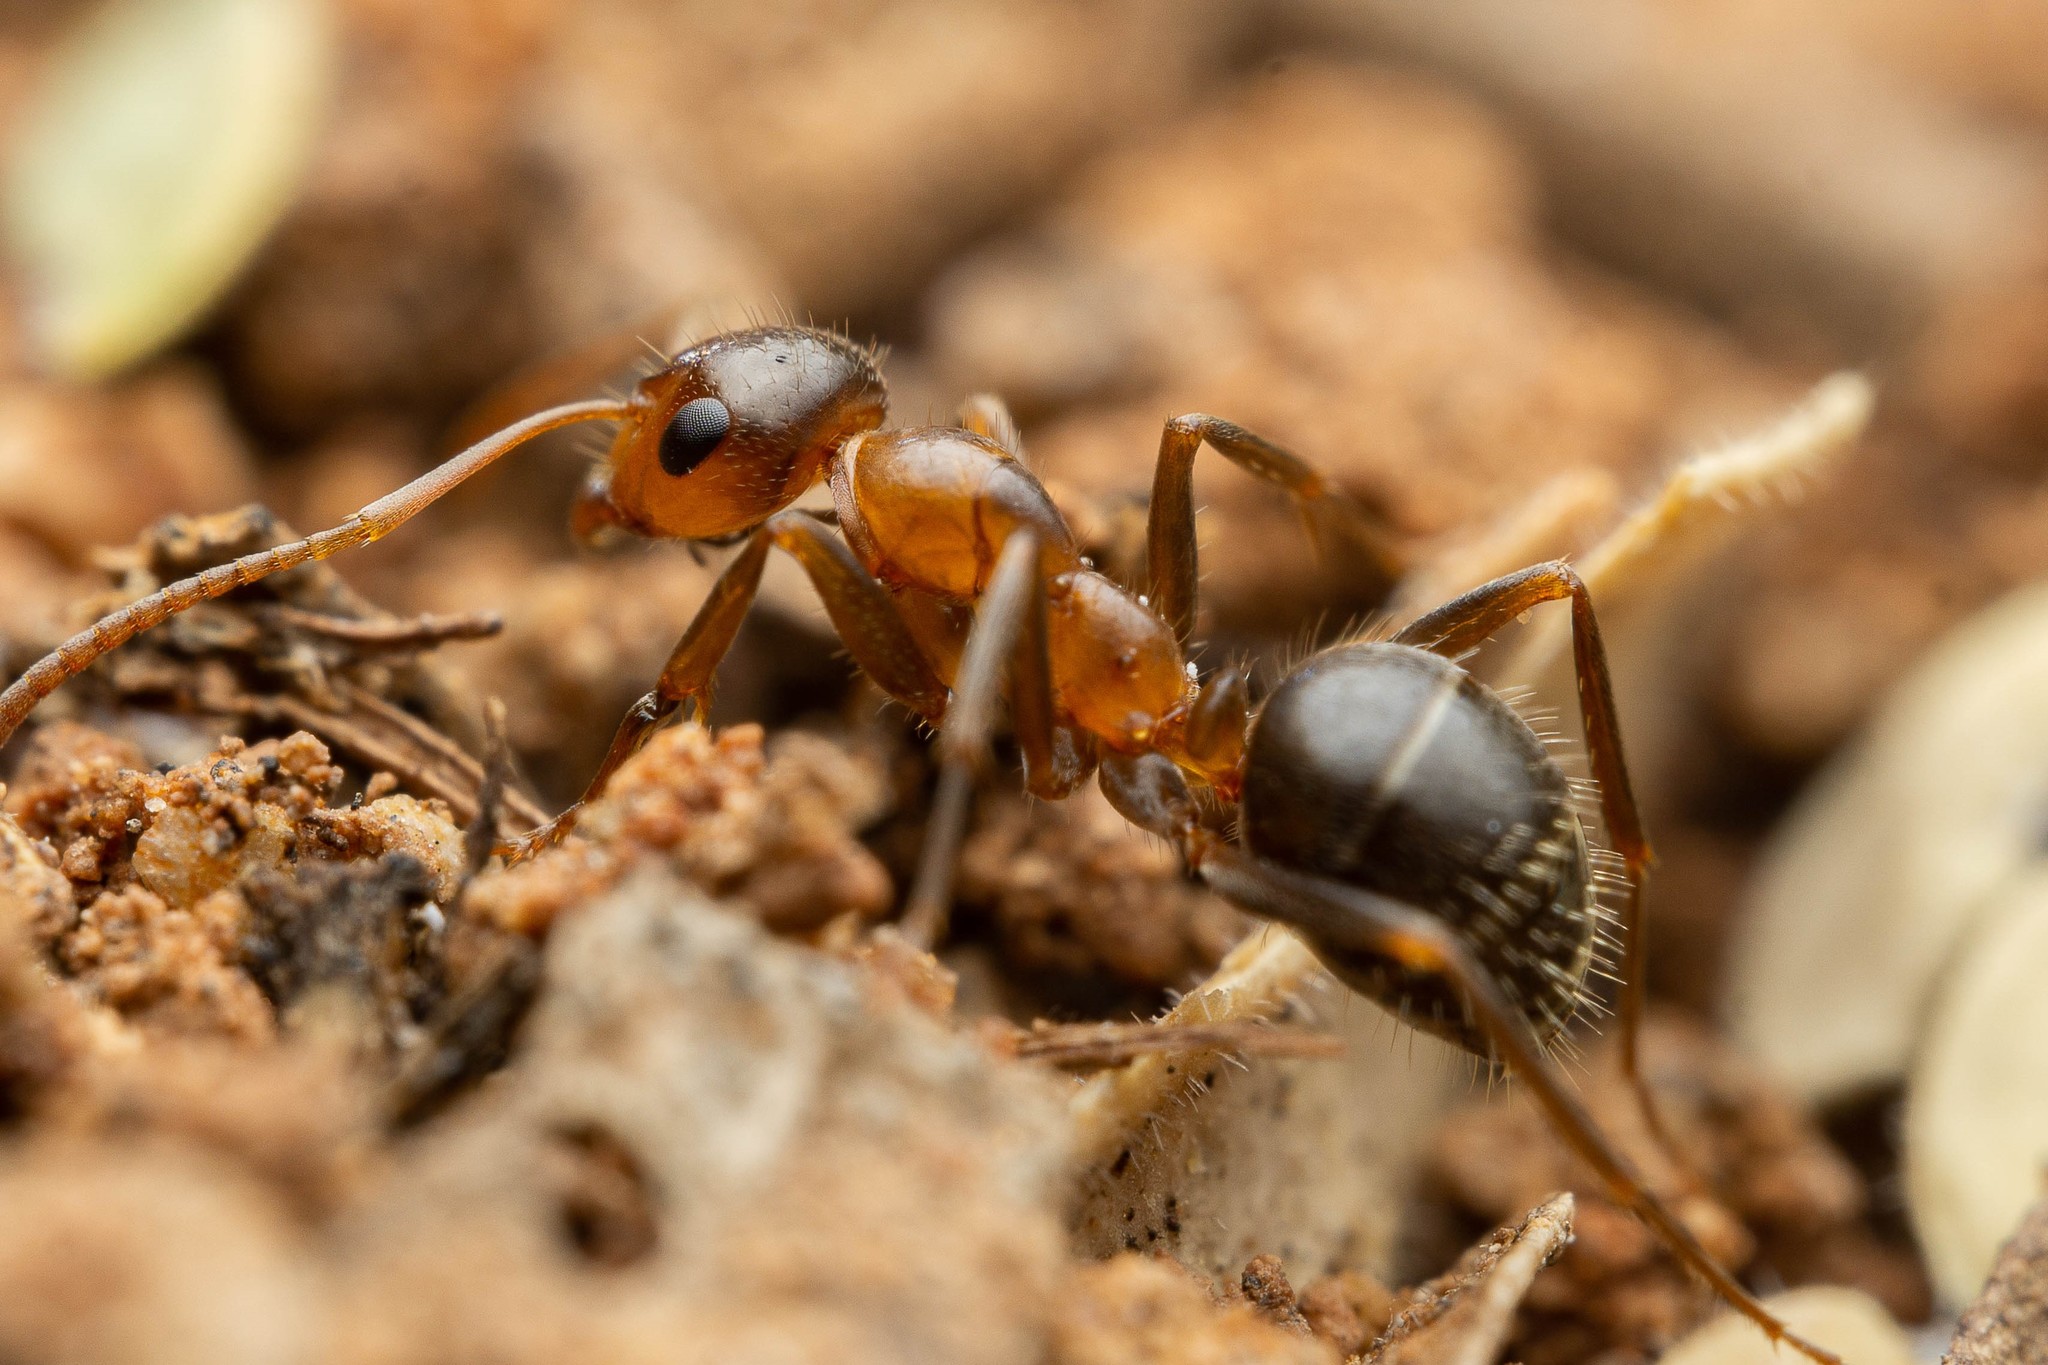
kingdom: Animalia
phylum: Arthropoda
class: Insecta
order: Hymenoptera
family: Formicidae
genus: Formica
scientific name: Formica perpilosa
